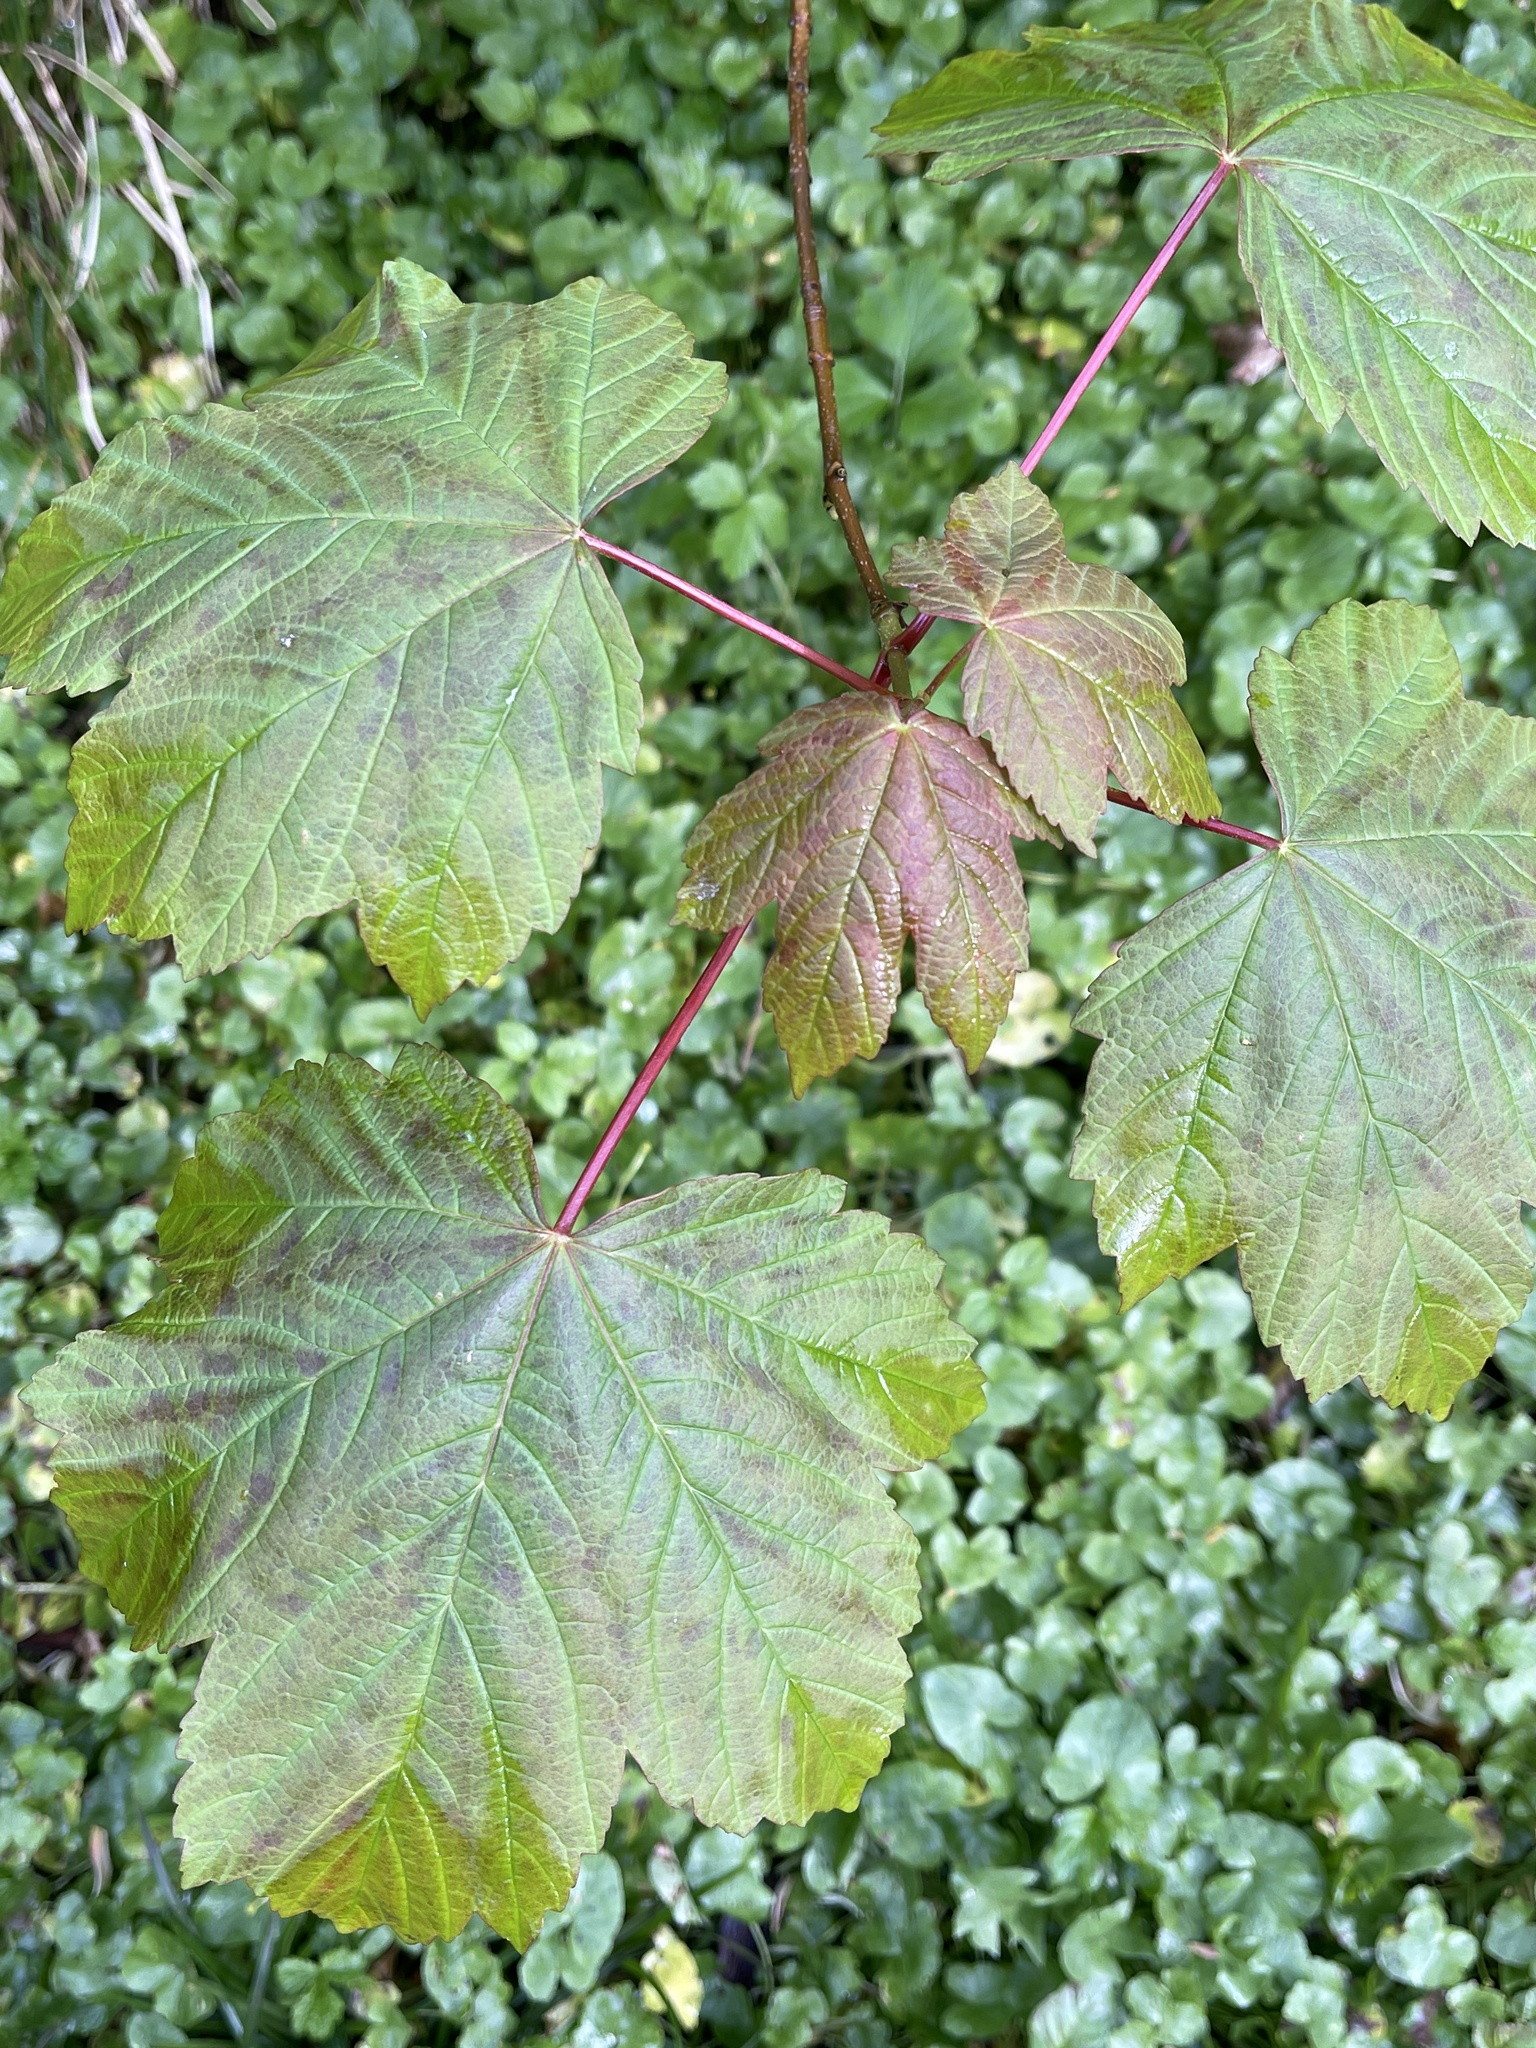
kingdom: Plantae
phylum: Tracheophyta
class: Magnoliopsida
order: Sapindales
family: Sapindaceae
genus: Acer
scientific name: Acer pseudoplatanus
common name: Sycamore
